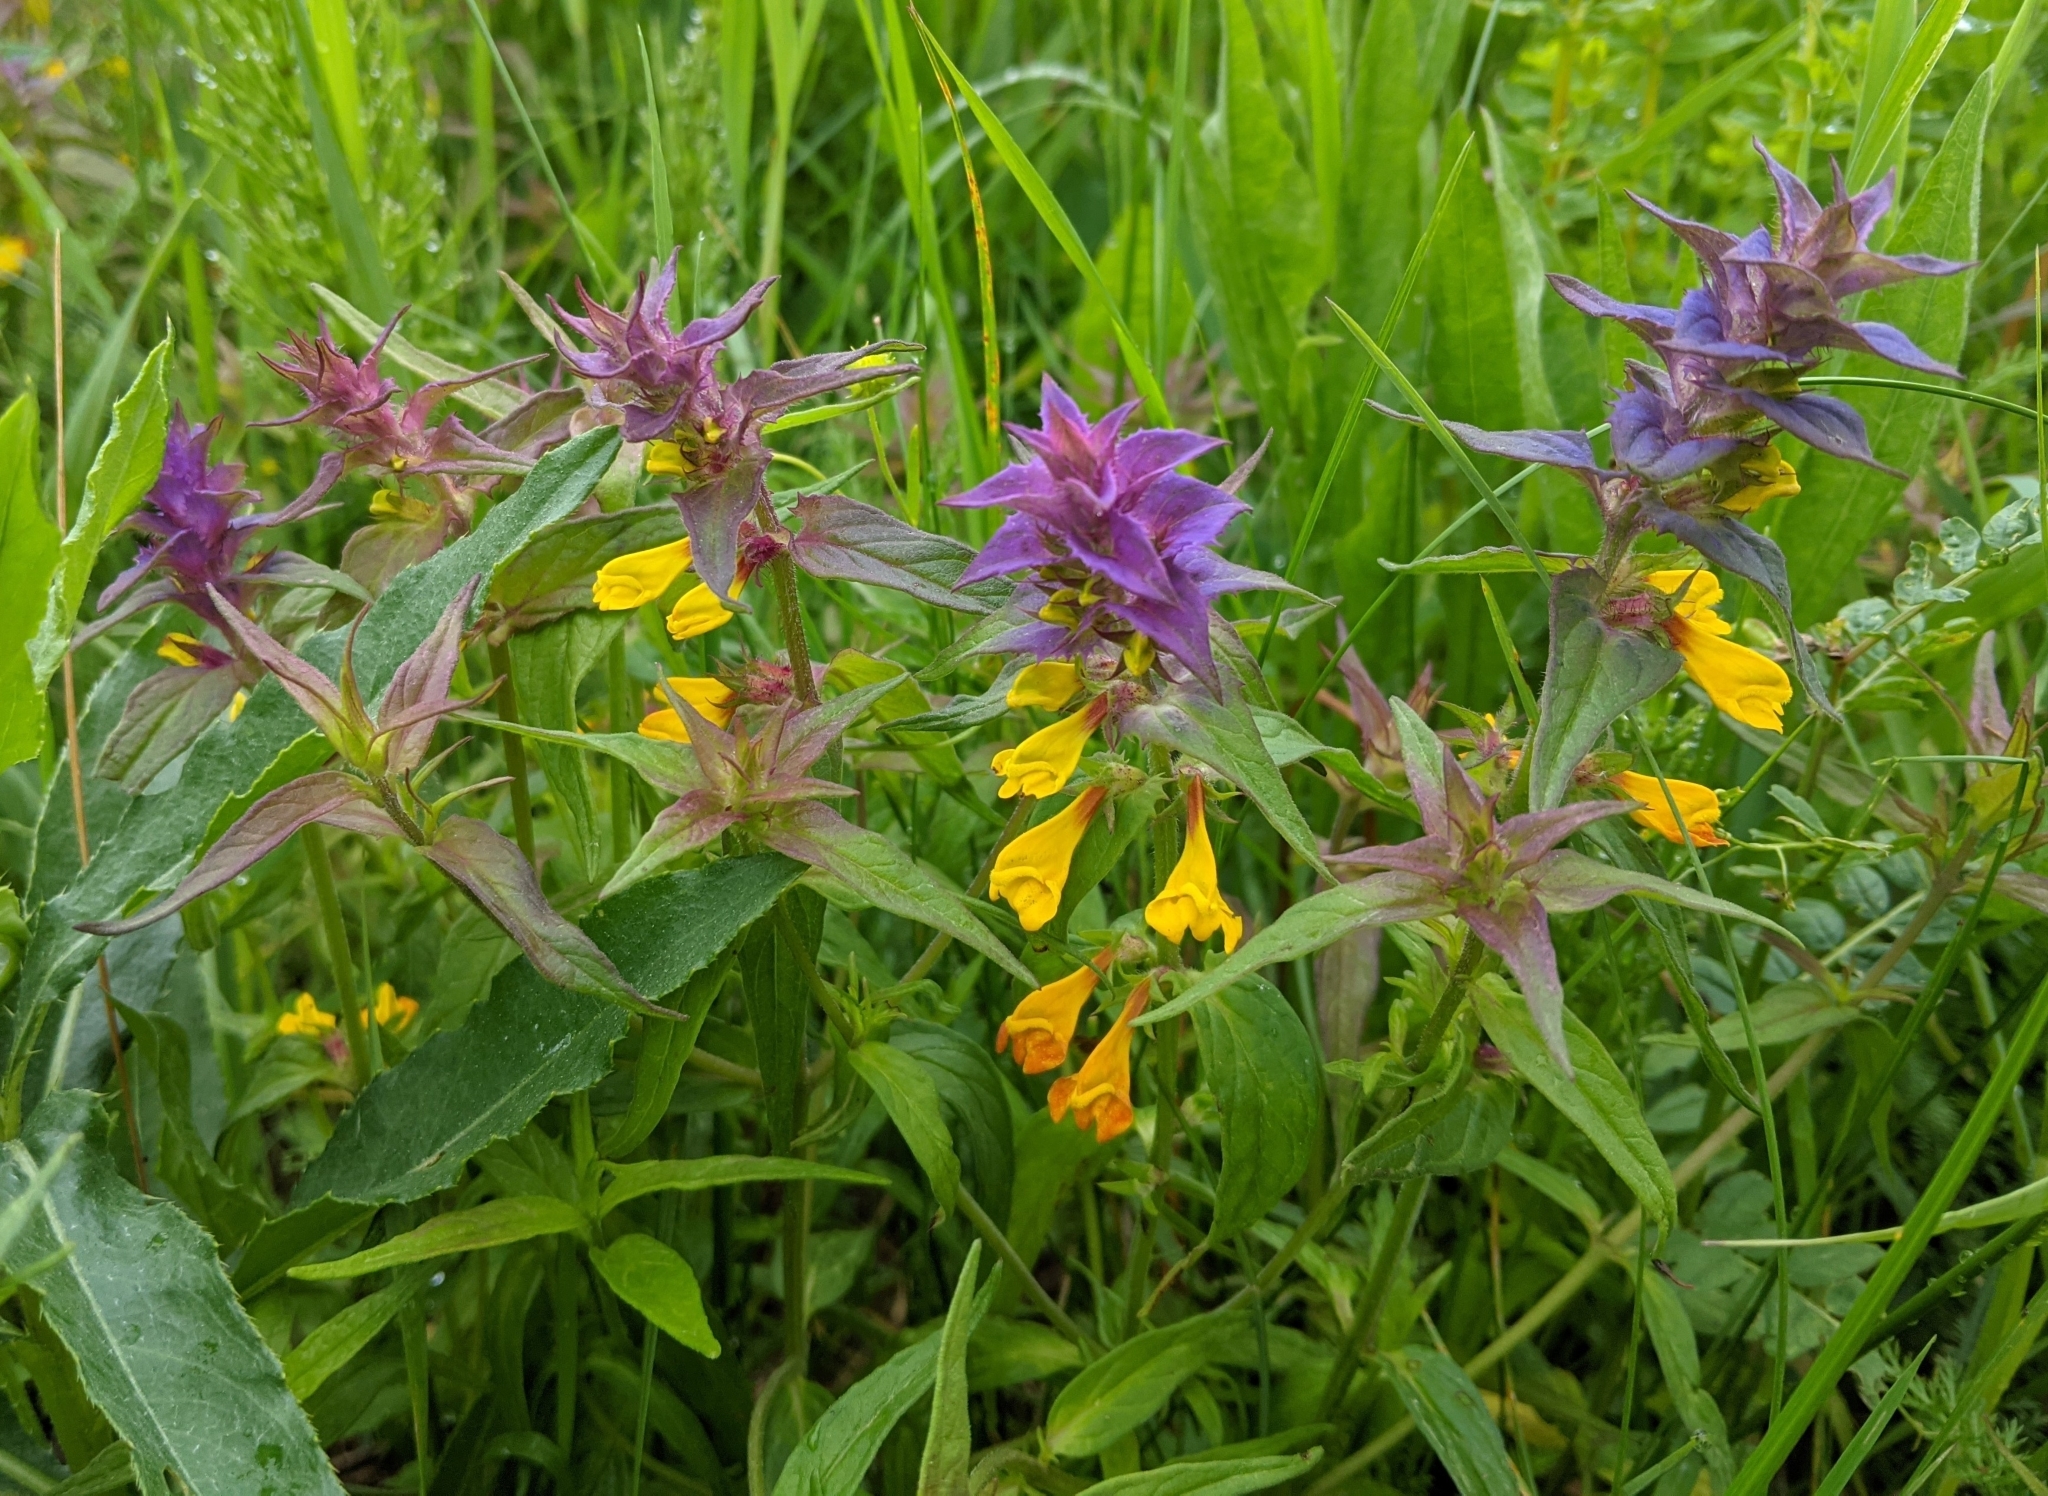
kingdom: Plantae
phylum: Tracheophyta
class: Magnoliopsida
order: Lamiales
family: Orobanchaceae
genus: Melampyrum
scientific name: Melampyrum nemorosum
